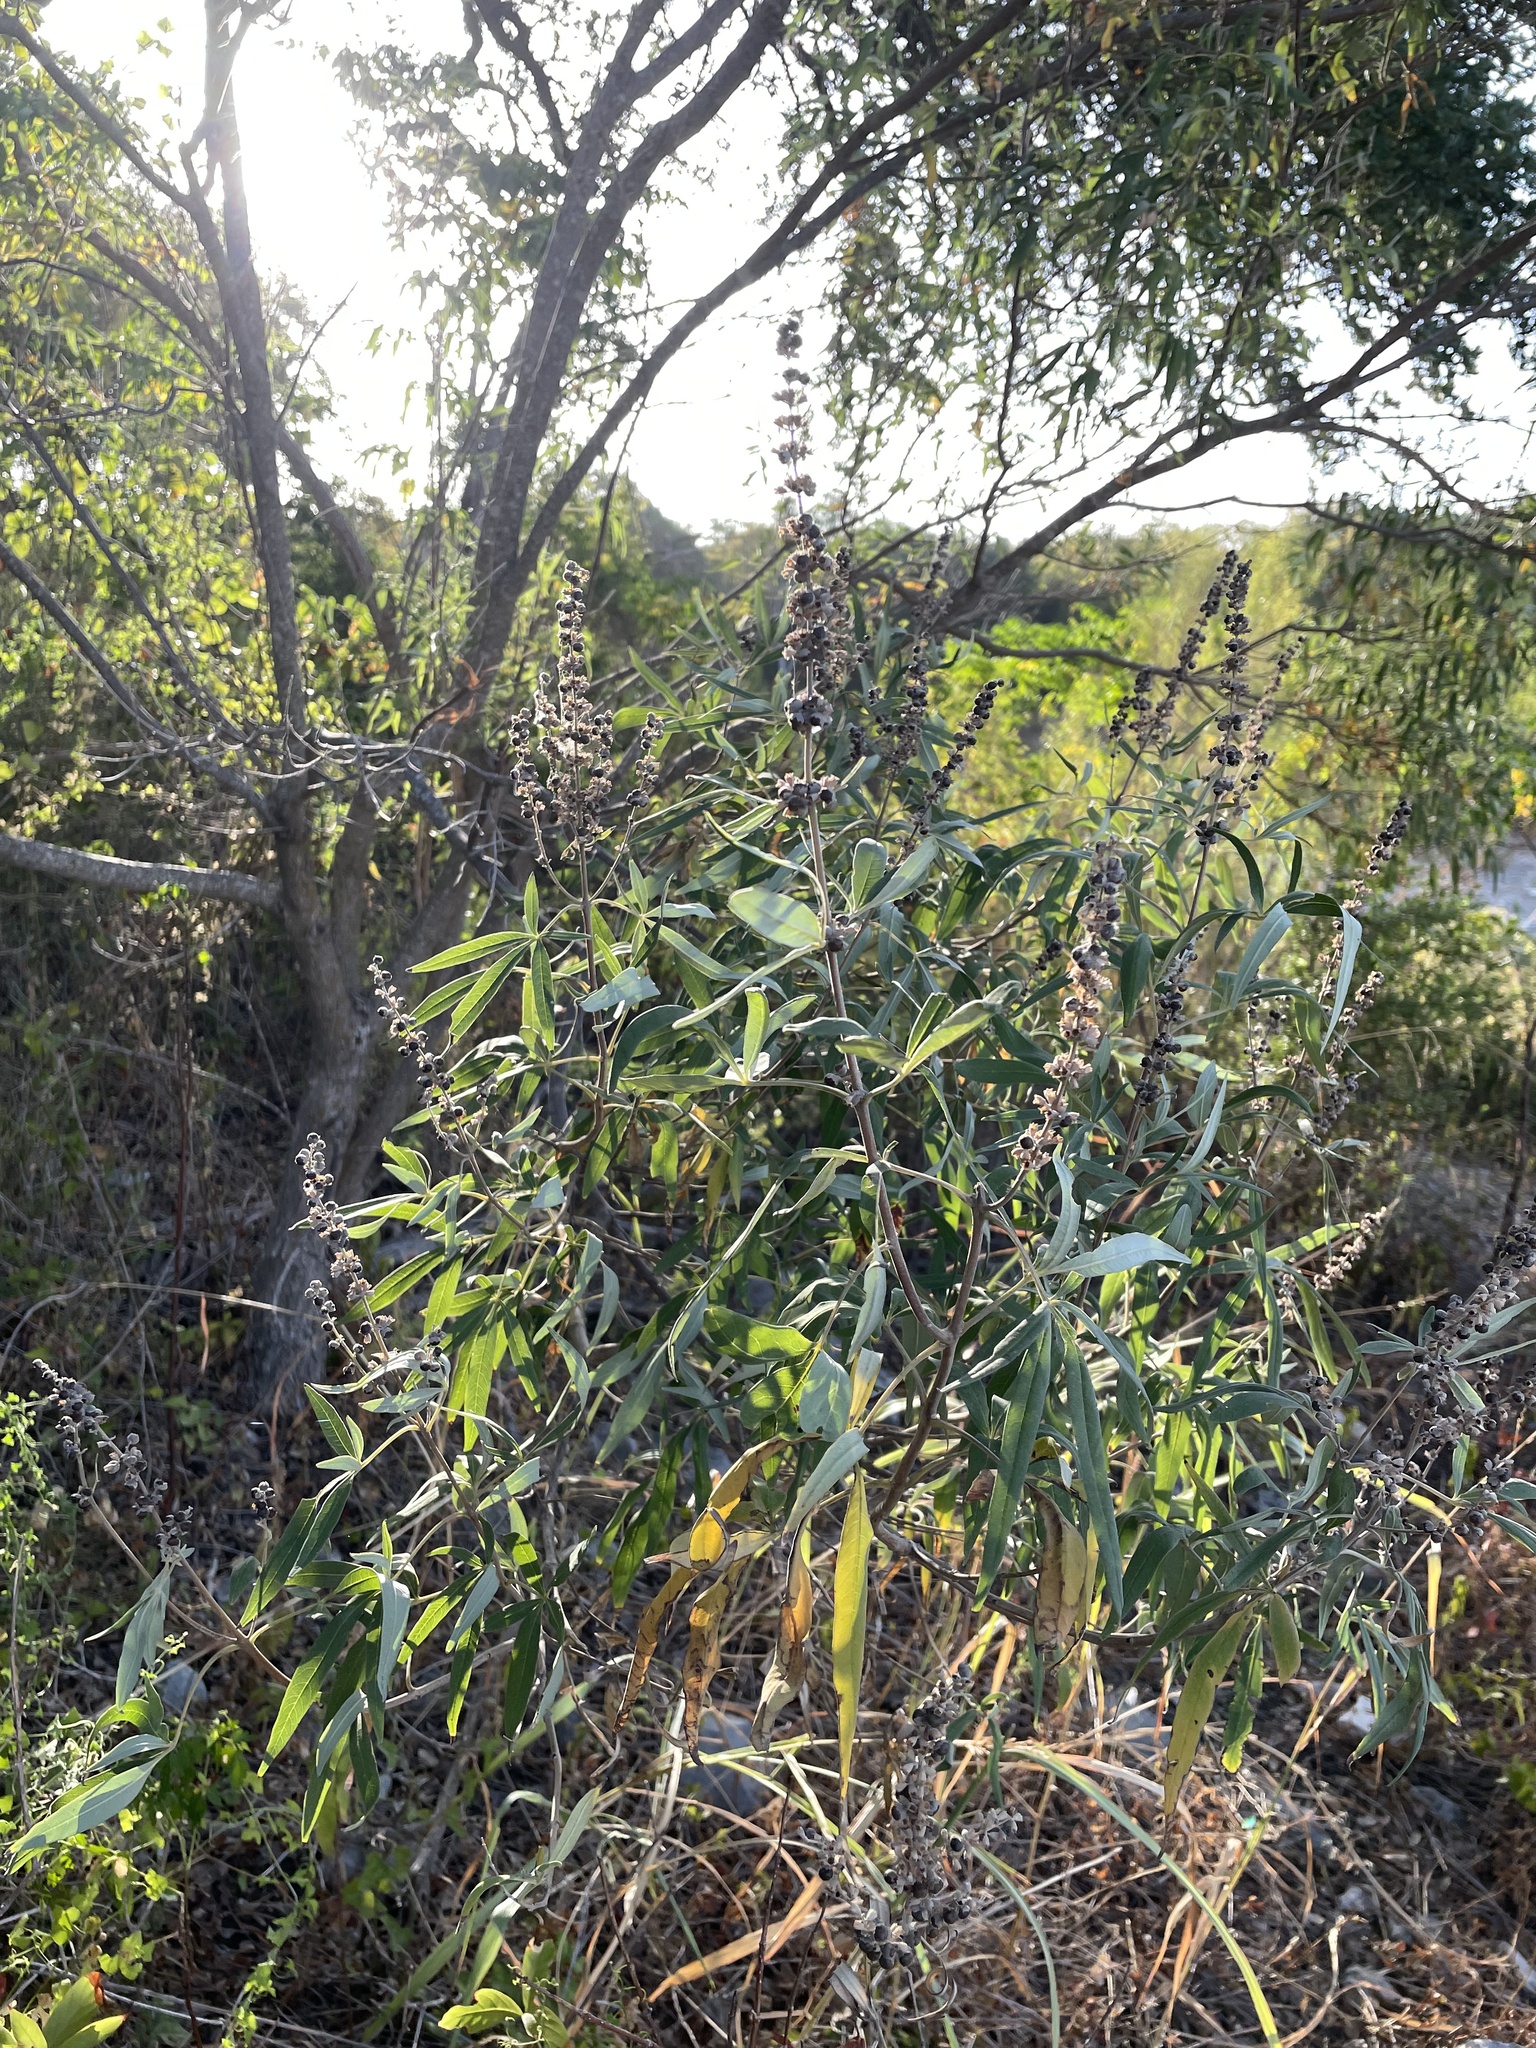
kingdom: Plantae
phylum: Tracheophyta
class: Magnoliopsida
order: Lamiales
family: Lamiaceae
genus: Vitex
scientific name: Vitex agnus-castus
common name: Chasteberry
